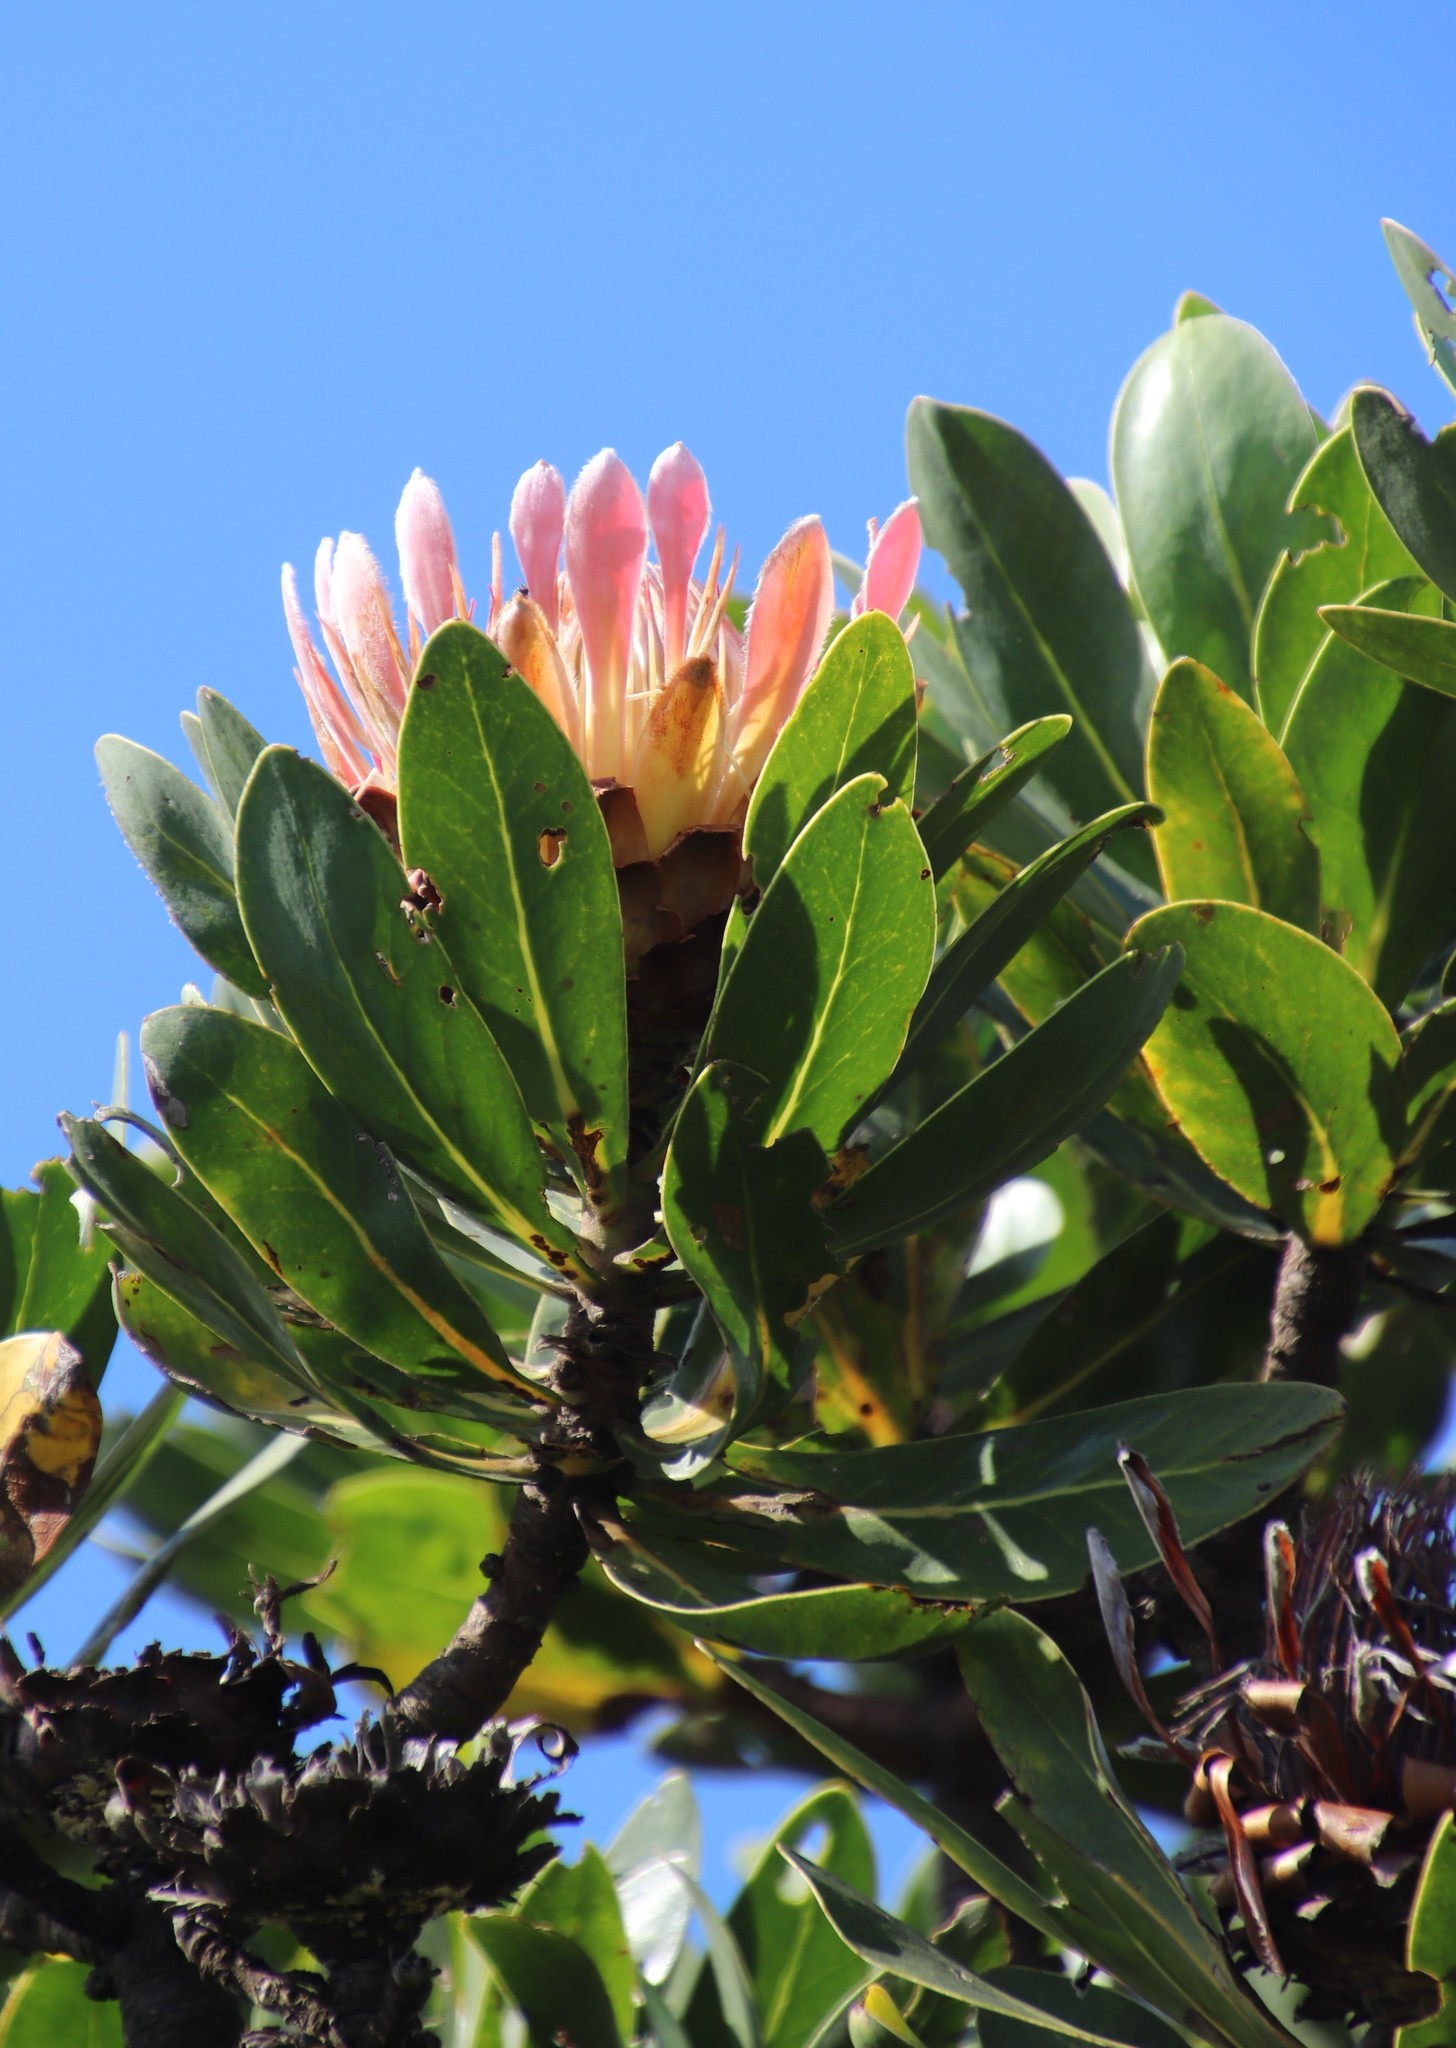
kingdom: Plantae
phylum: Tracheophyta
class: Magnoliopsida
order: Proteales
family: Proteaceae
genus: Protea
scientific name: Protea roupelliae
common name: Silver sugarbush
